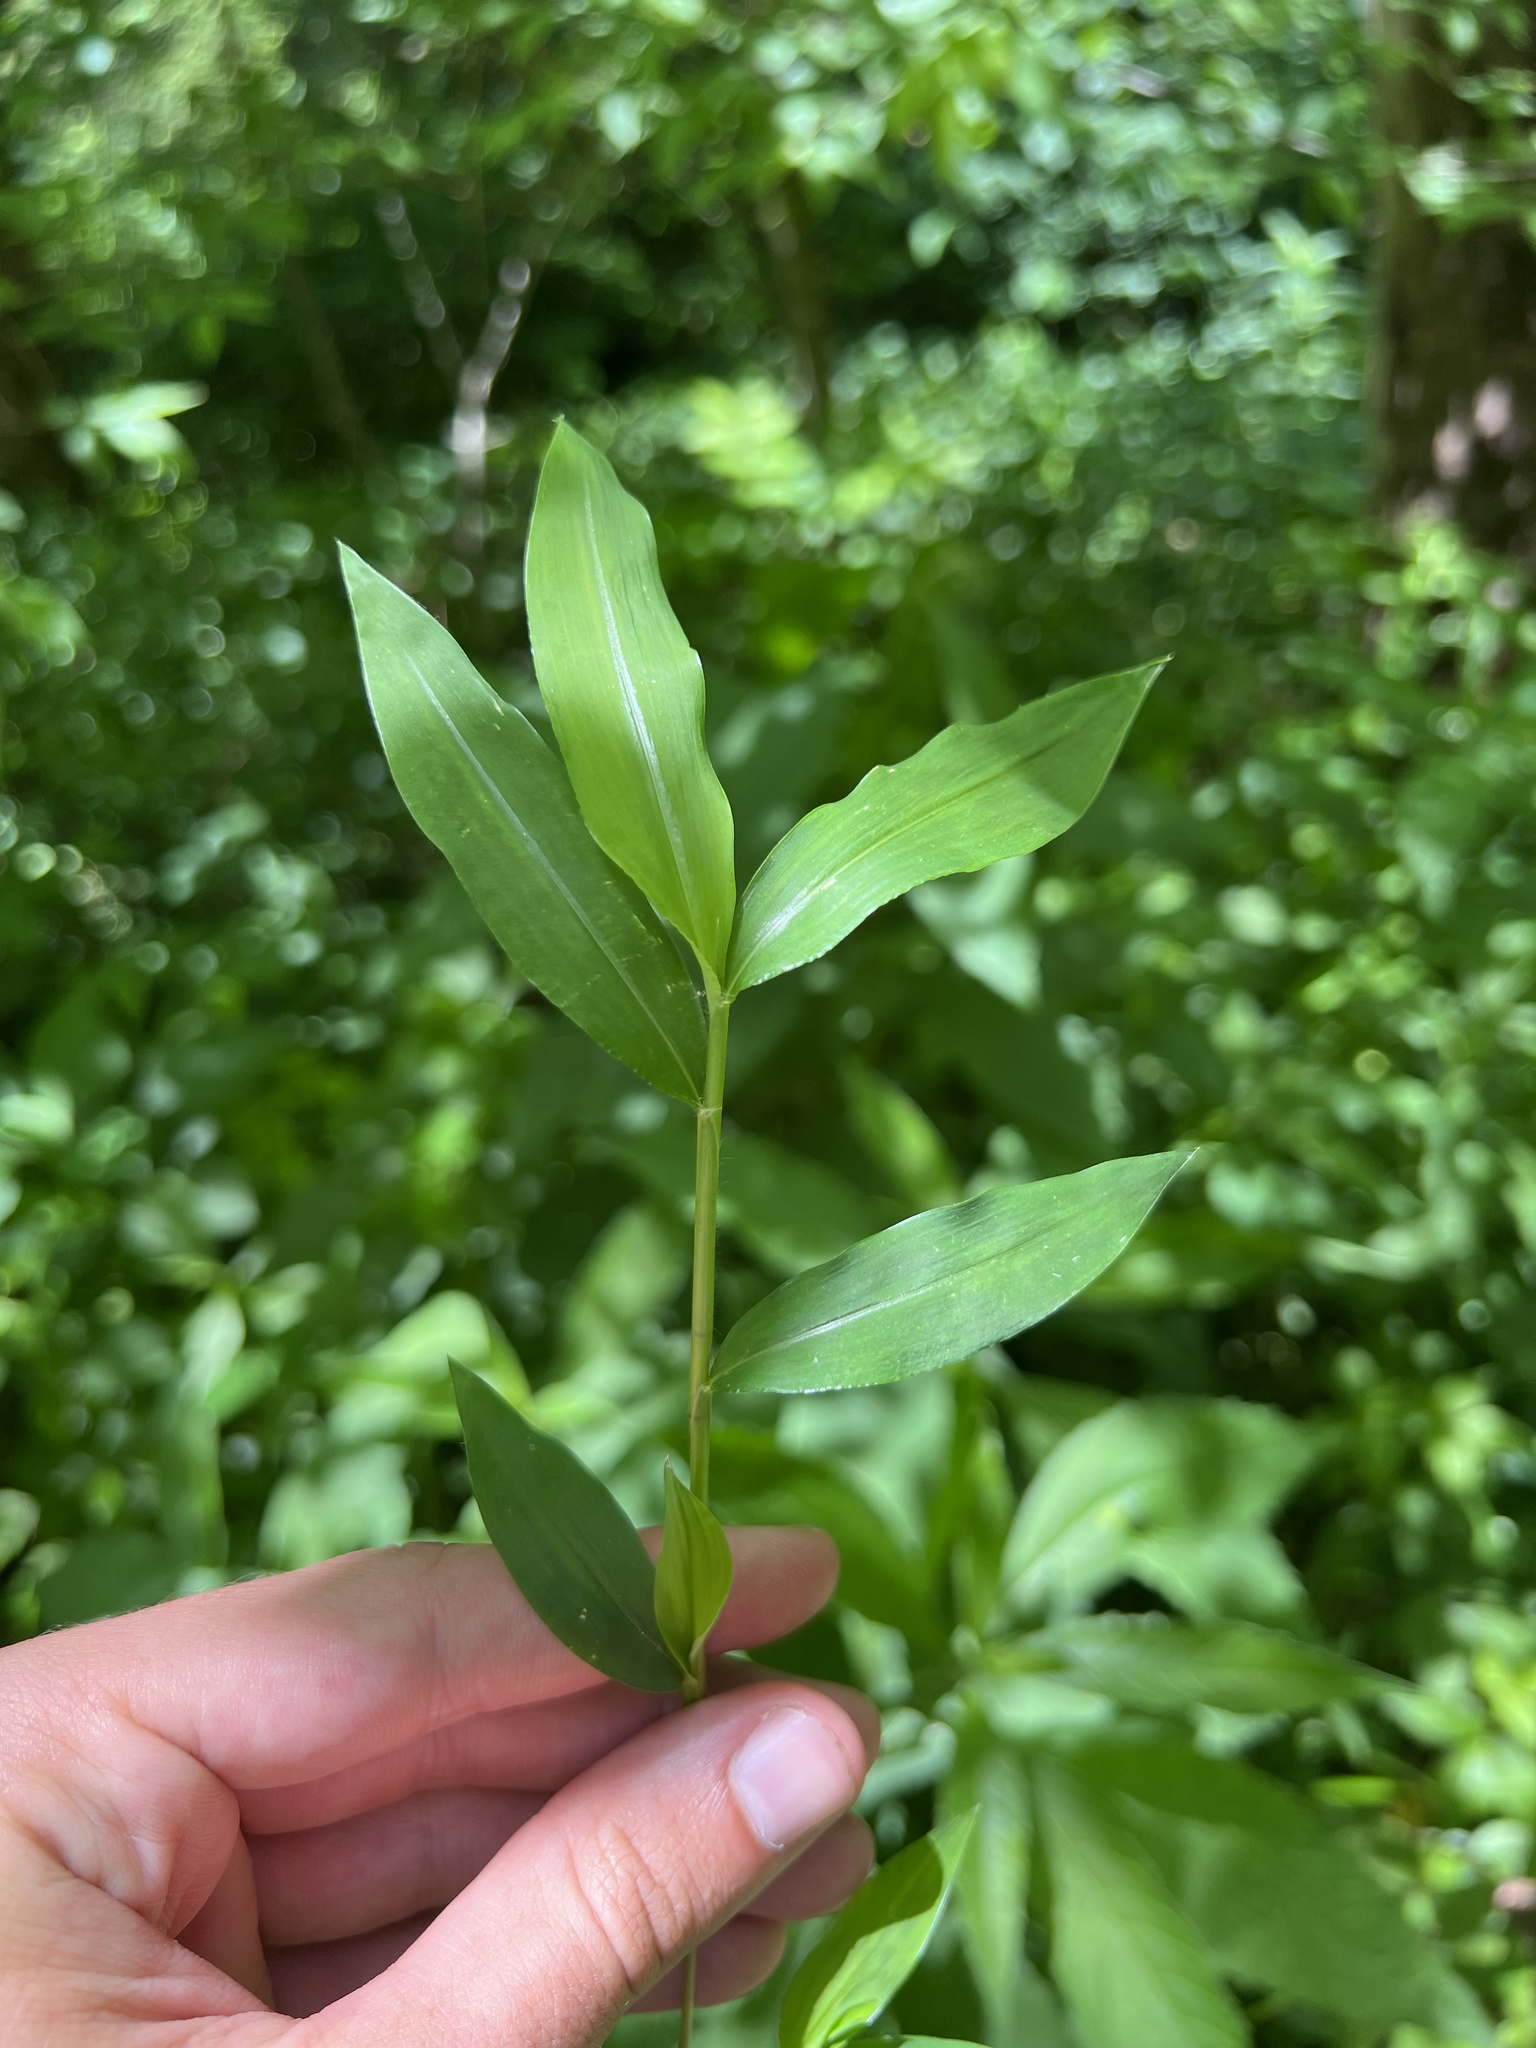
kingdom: Plantae
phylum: Tracheophyta
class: Liliopsida
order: Poales
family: Poaceae
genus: Microstegium
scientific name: Microstegium vimineum
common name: Japanese stiltgrass
